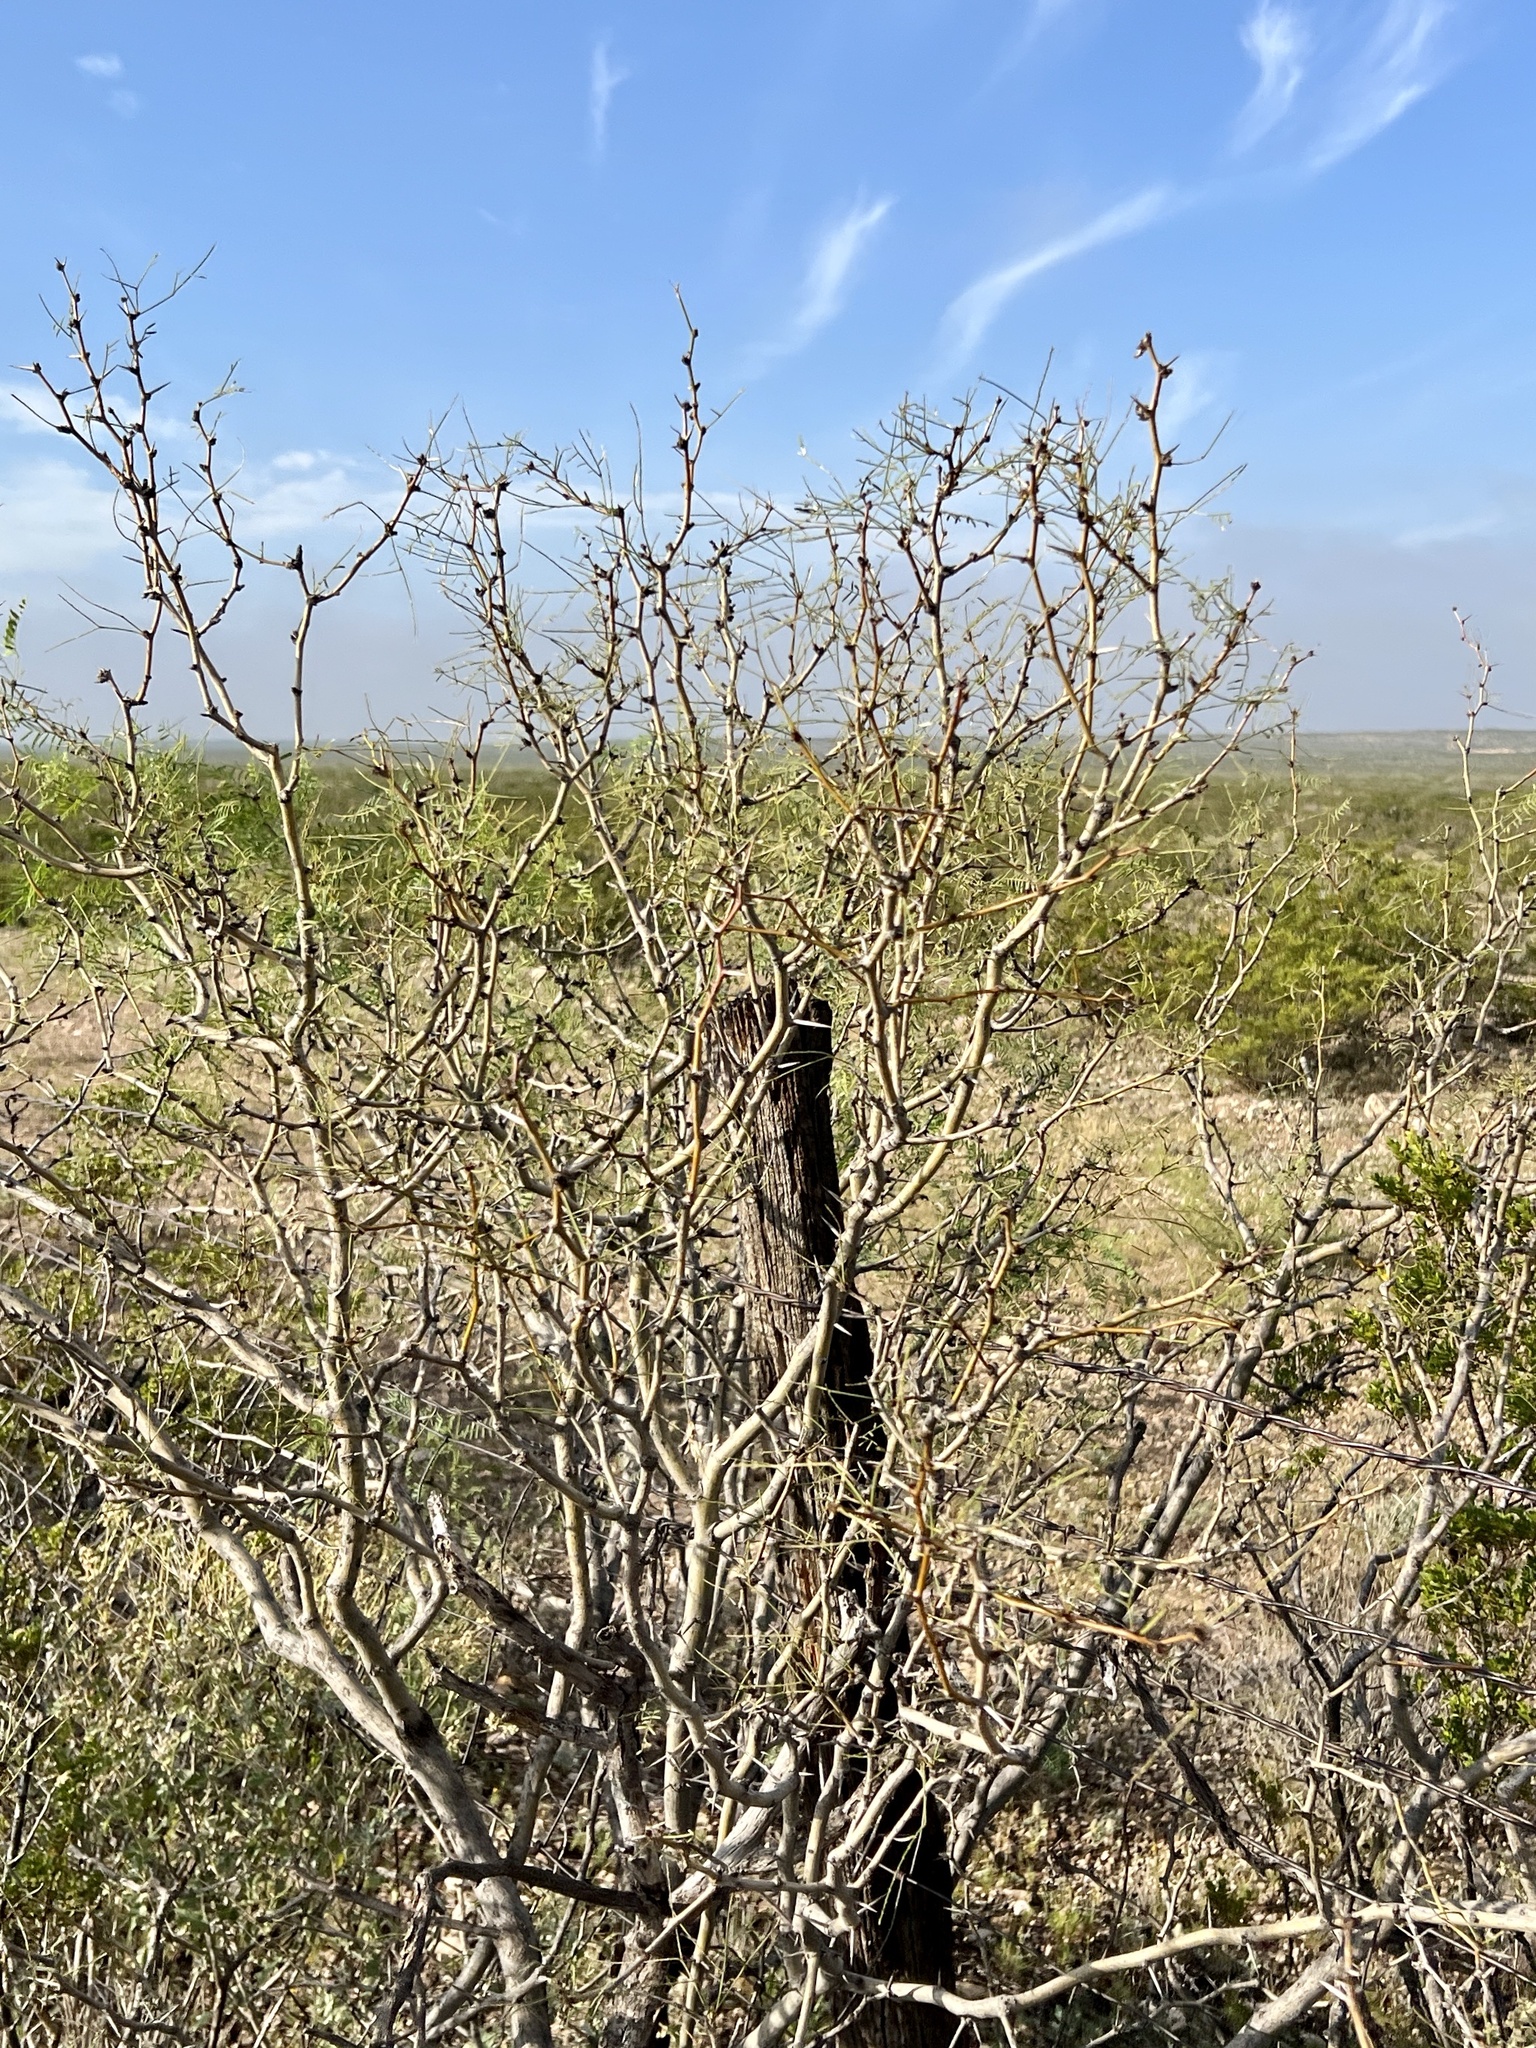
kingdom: Plantae
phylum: Tracheophyta
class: Magnoliopsida
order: Fabales
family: Fabaceae
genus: Prosopis
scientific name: Prosopis glandulosa
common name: Honey mesquite
